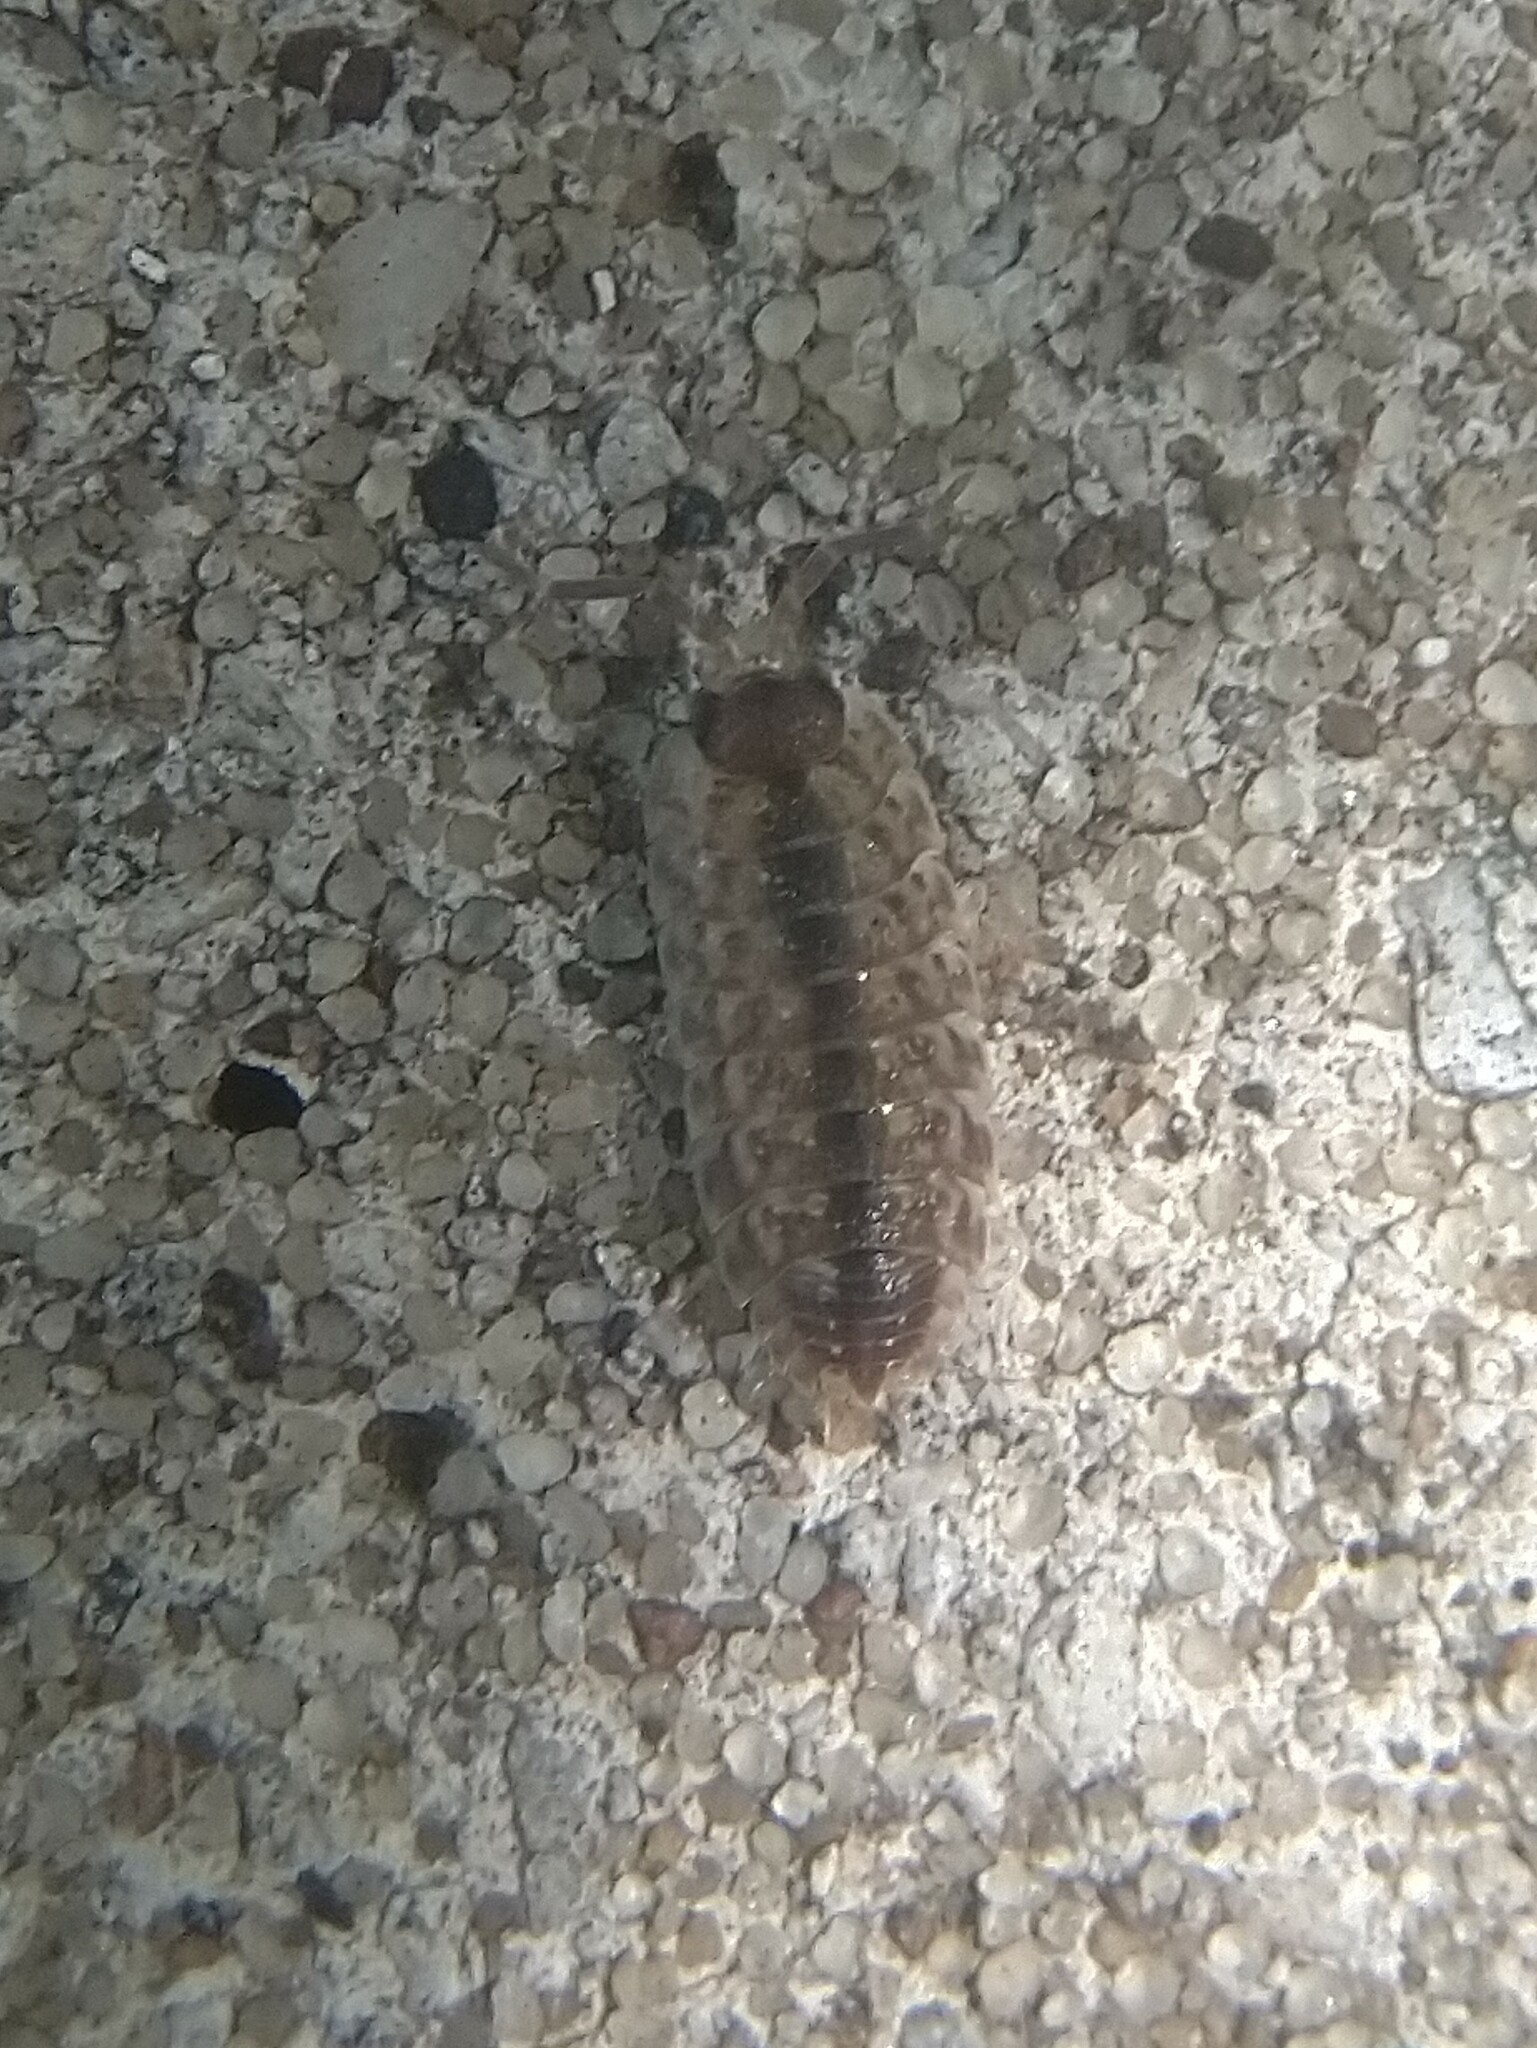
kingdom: Animalia
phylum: Arthropoda
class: Malacostraca
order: Isopoda
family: Porcellionidae
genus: Porcellio
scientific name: Porcellio spinicornis
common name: Painted woodlouse
